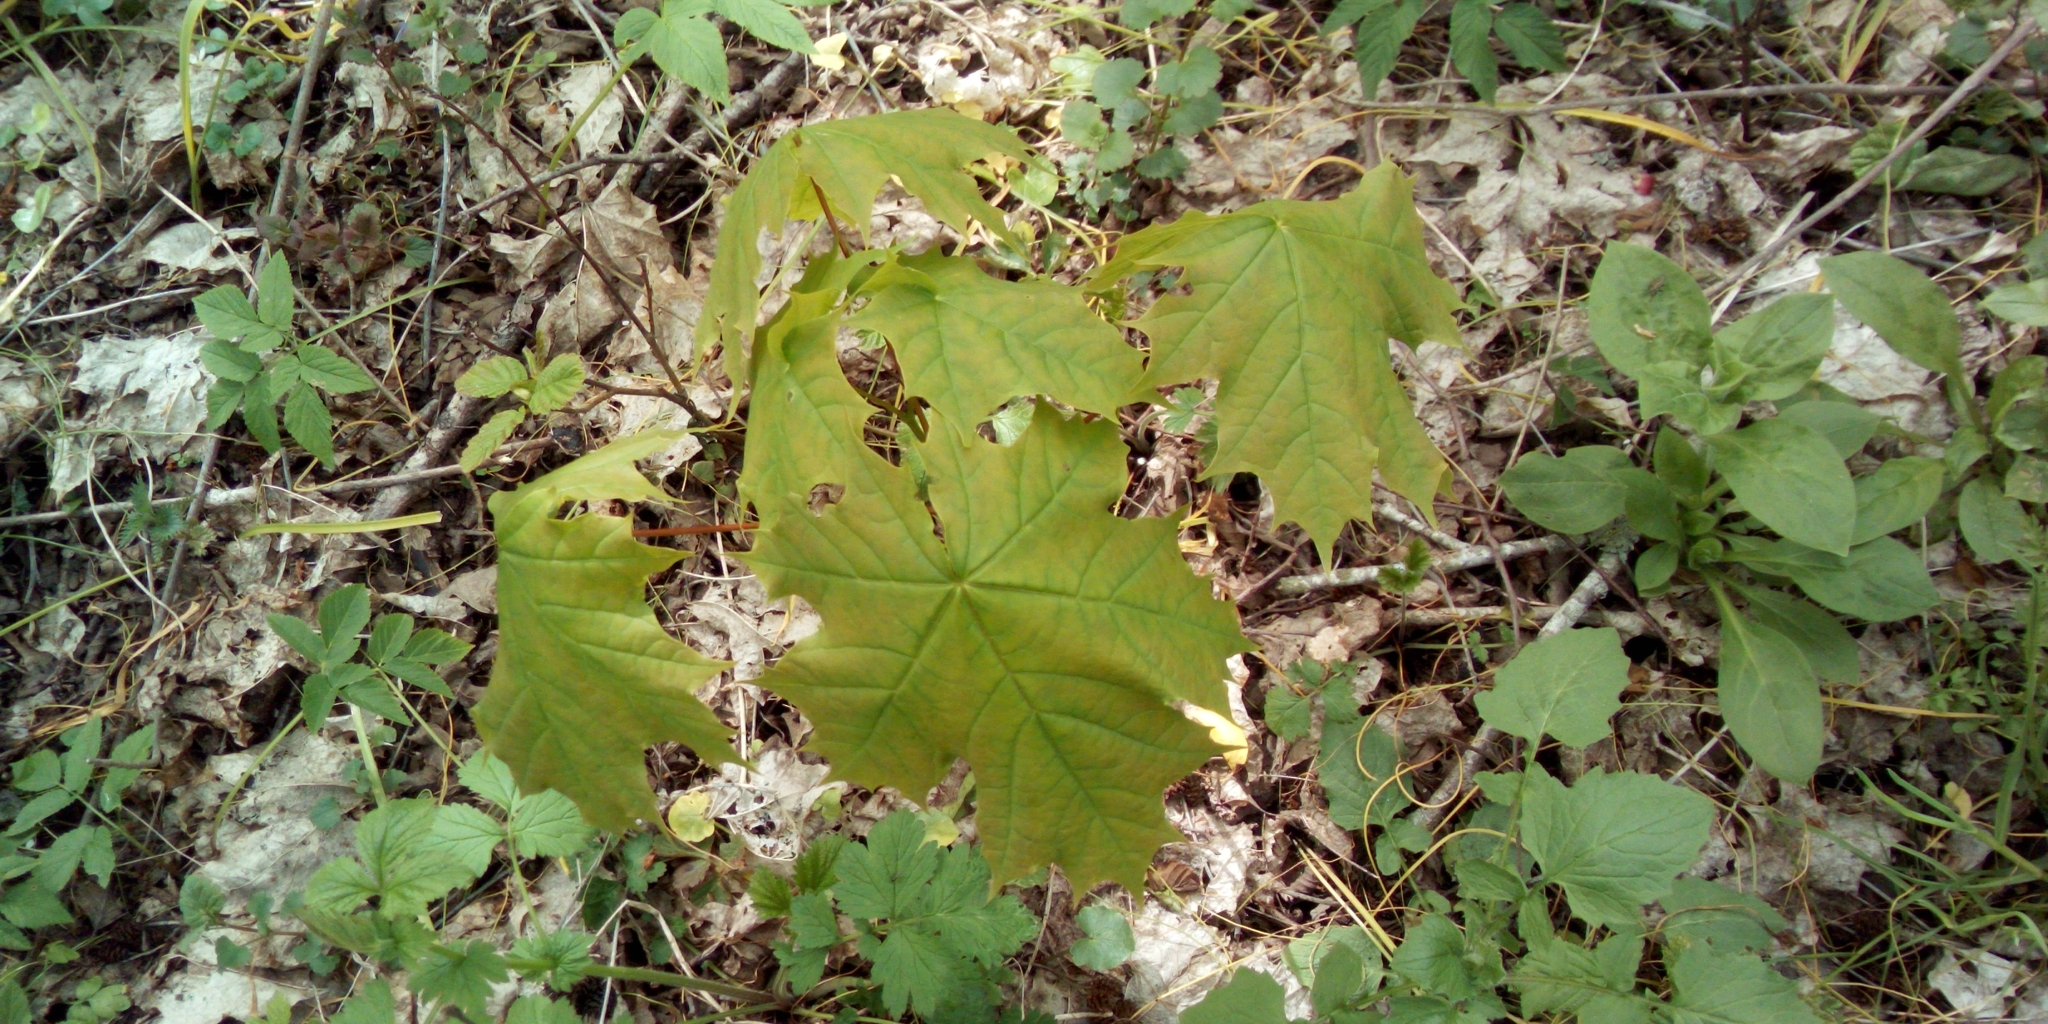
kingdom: Plantae
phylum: Tracheophyta
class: Magnoliopsida
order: Sapindales
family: Sapindaceae
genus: Acer
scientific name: Acer platanoides
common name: Norway maple
